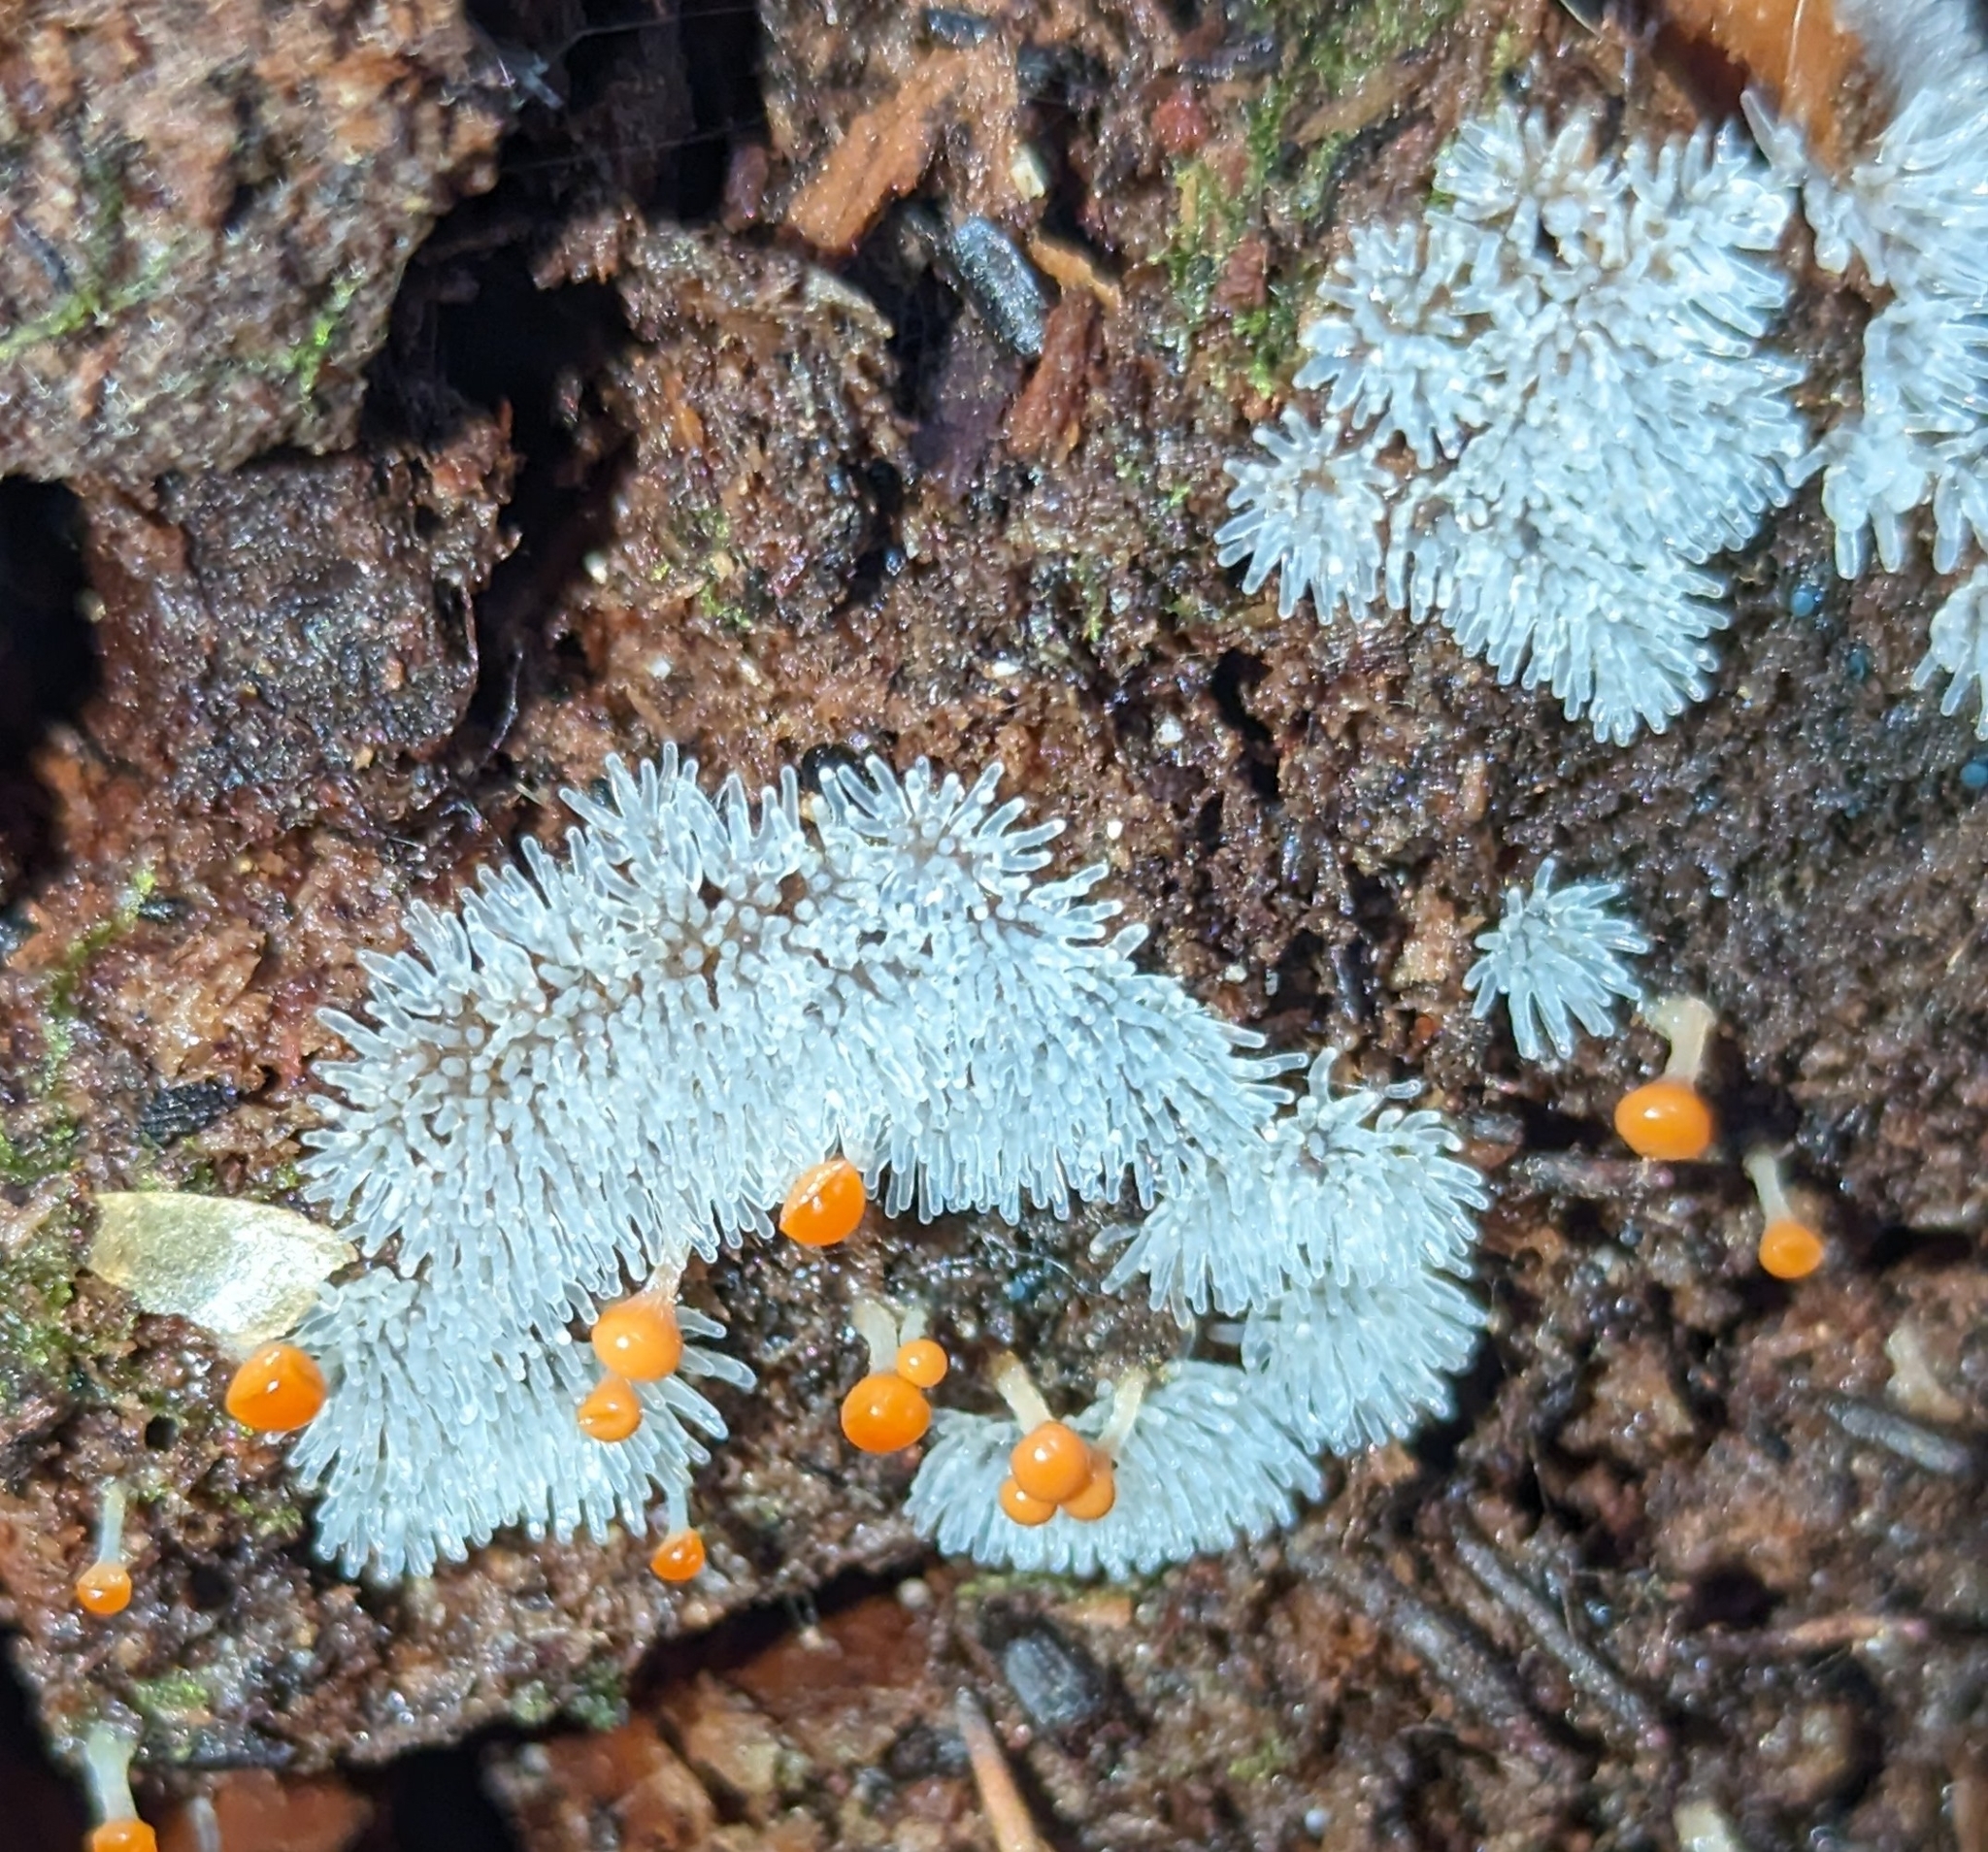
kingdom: Protozoa
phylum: Mycetozoa
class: Protosteliomycetes
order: Ceratiomyxales
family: Ceratiomyxaceae
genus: Ceratiomyxa
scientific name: Ceratiomyxa fruticulosa
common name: Honeycomb coral slime mold
